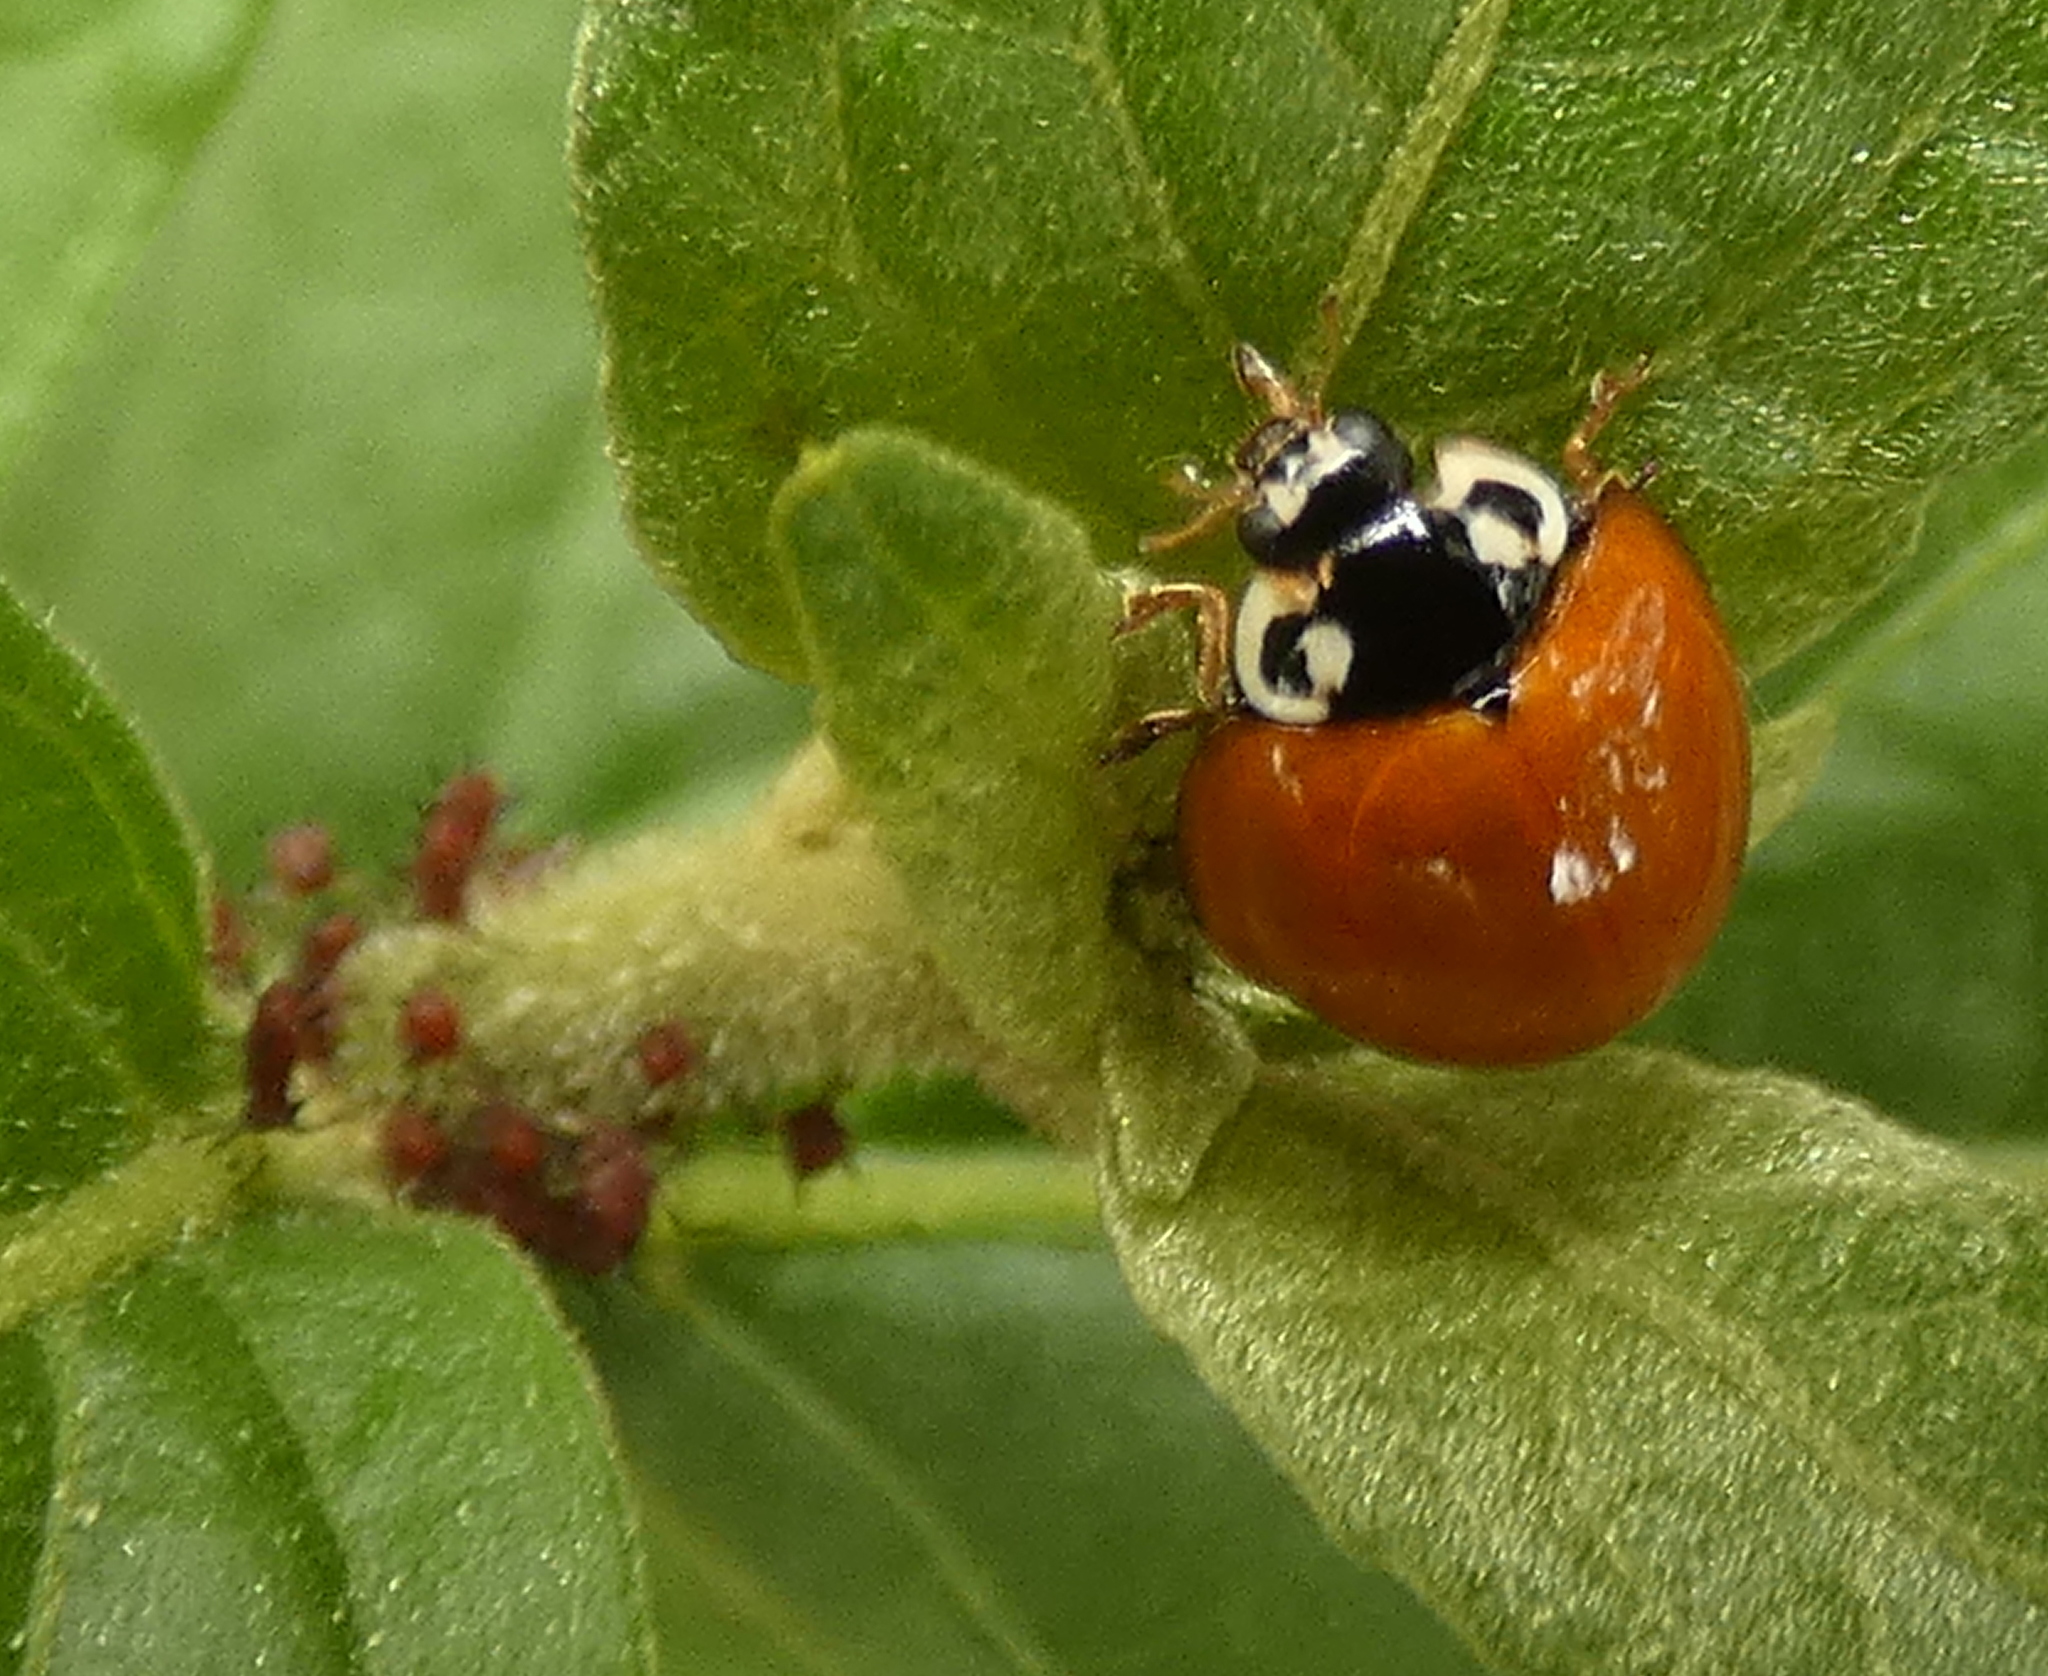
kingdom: Animalia
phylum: Arthropoda
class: Insecta
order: Coleoptera
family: Coccinellidae
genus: Cycloneda
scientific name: Cycloneda sanguinea
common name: Ladybird beetle
